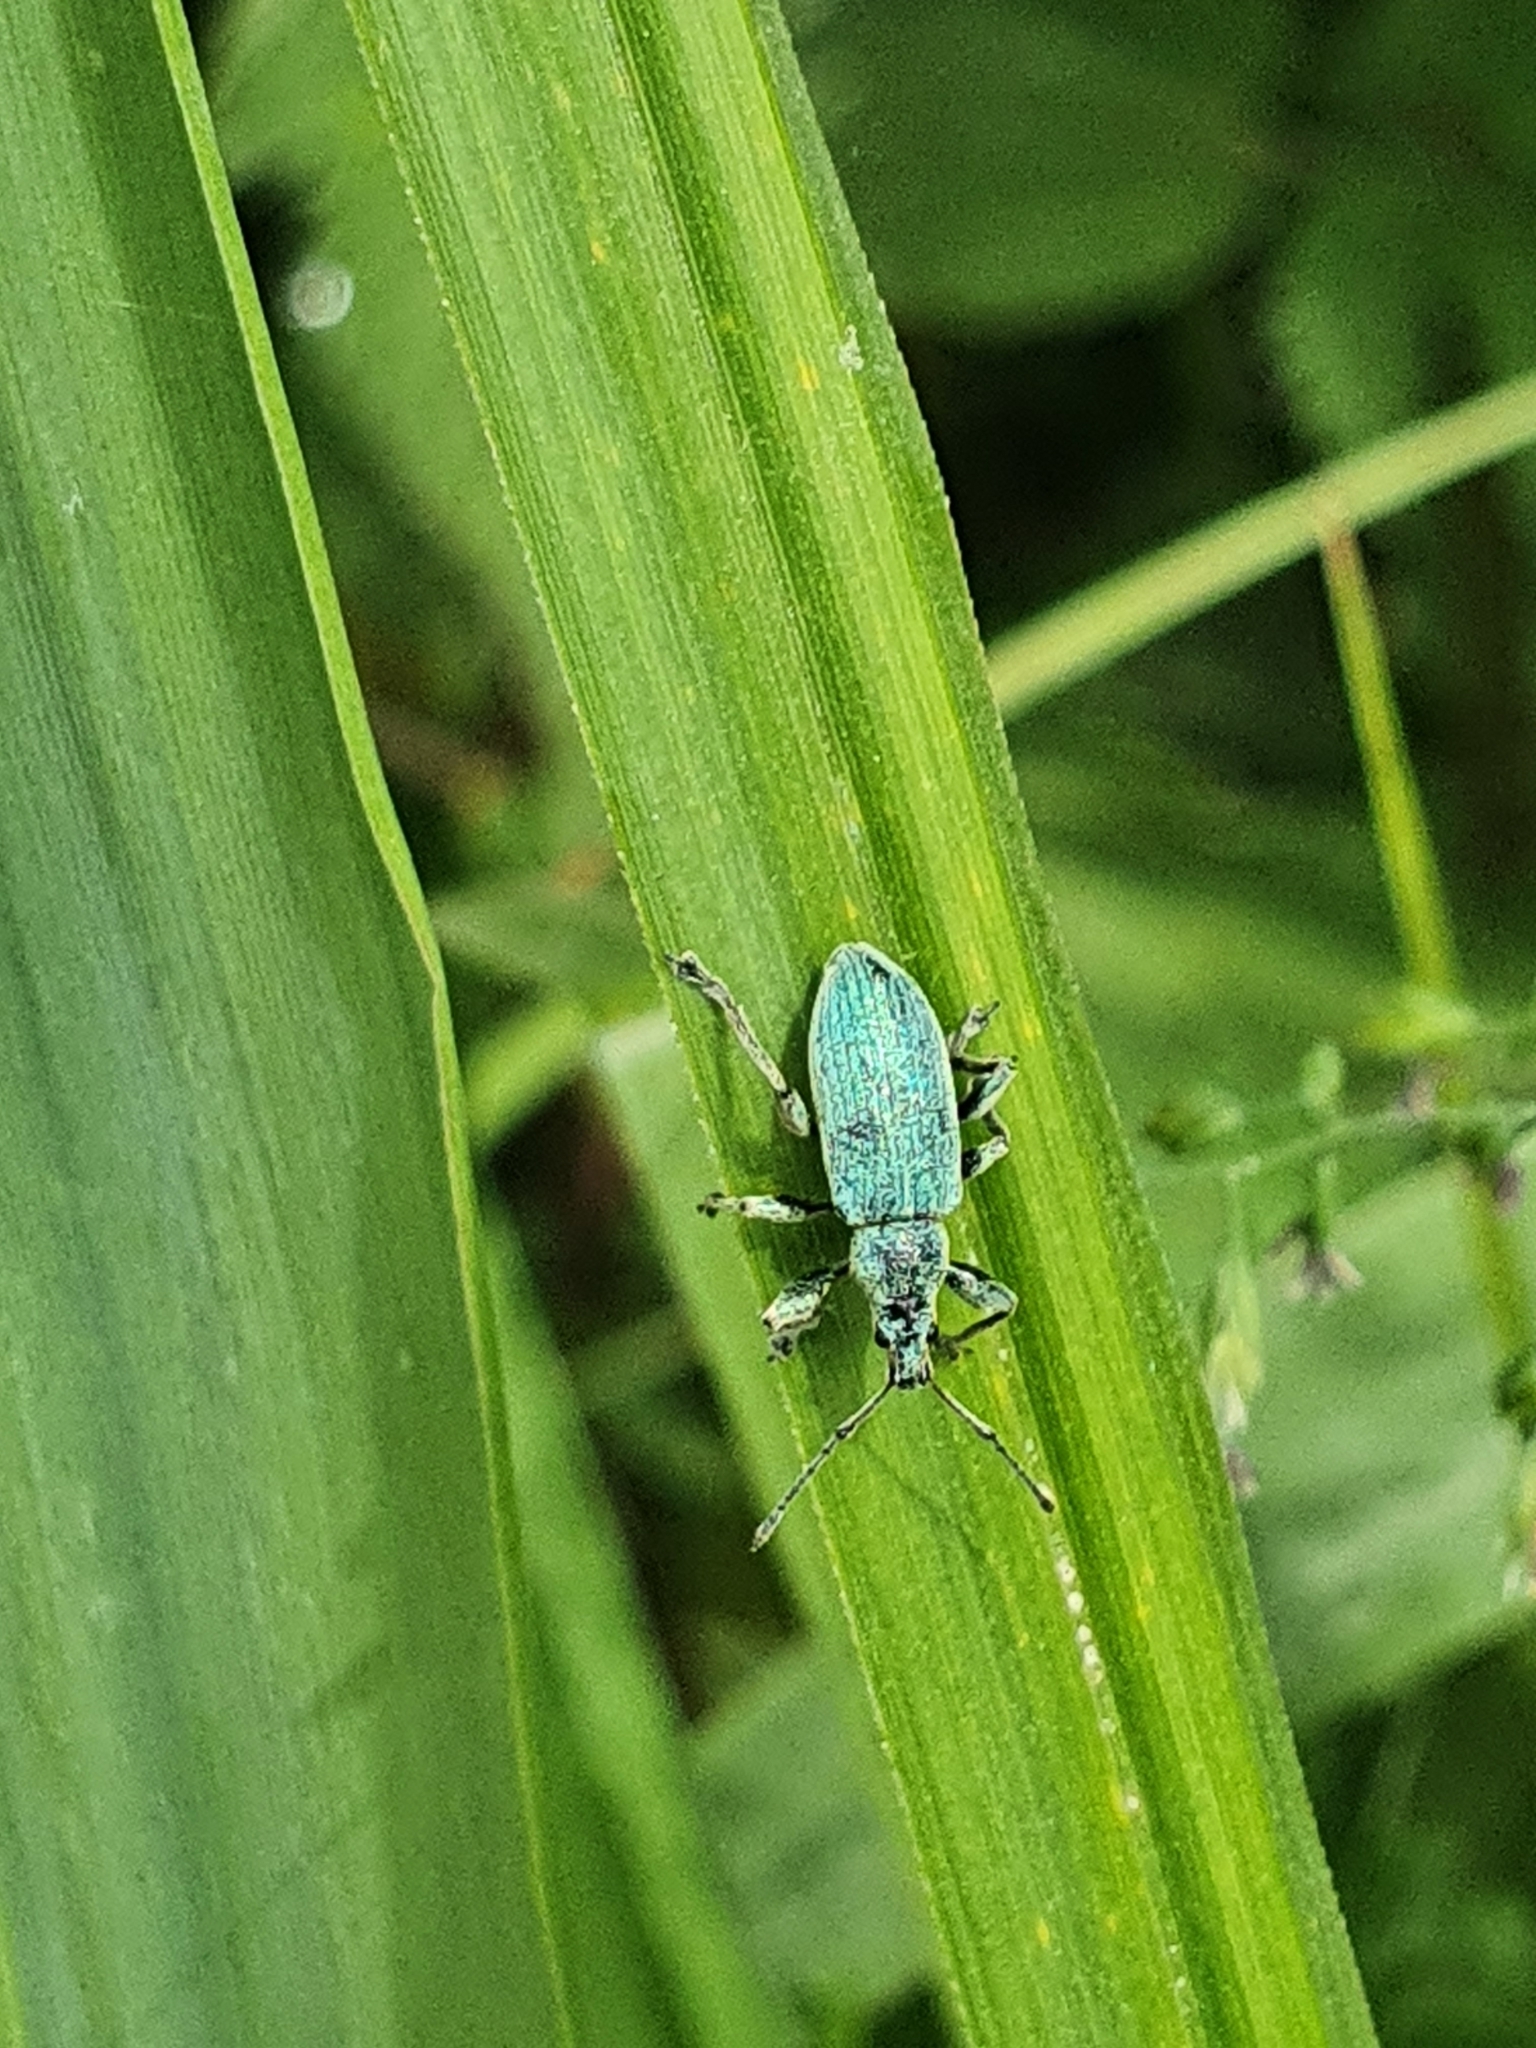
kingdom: Animalia
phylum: Arthropoda
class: Insecta
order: Coleoptera
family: Curculionidae
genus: Phyllobius
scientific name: Phyllobius pomaceus
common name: Green nettle weevil
